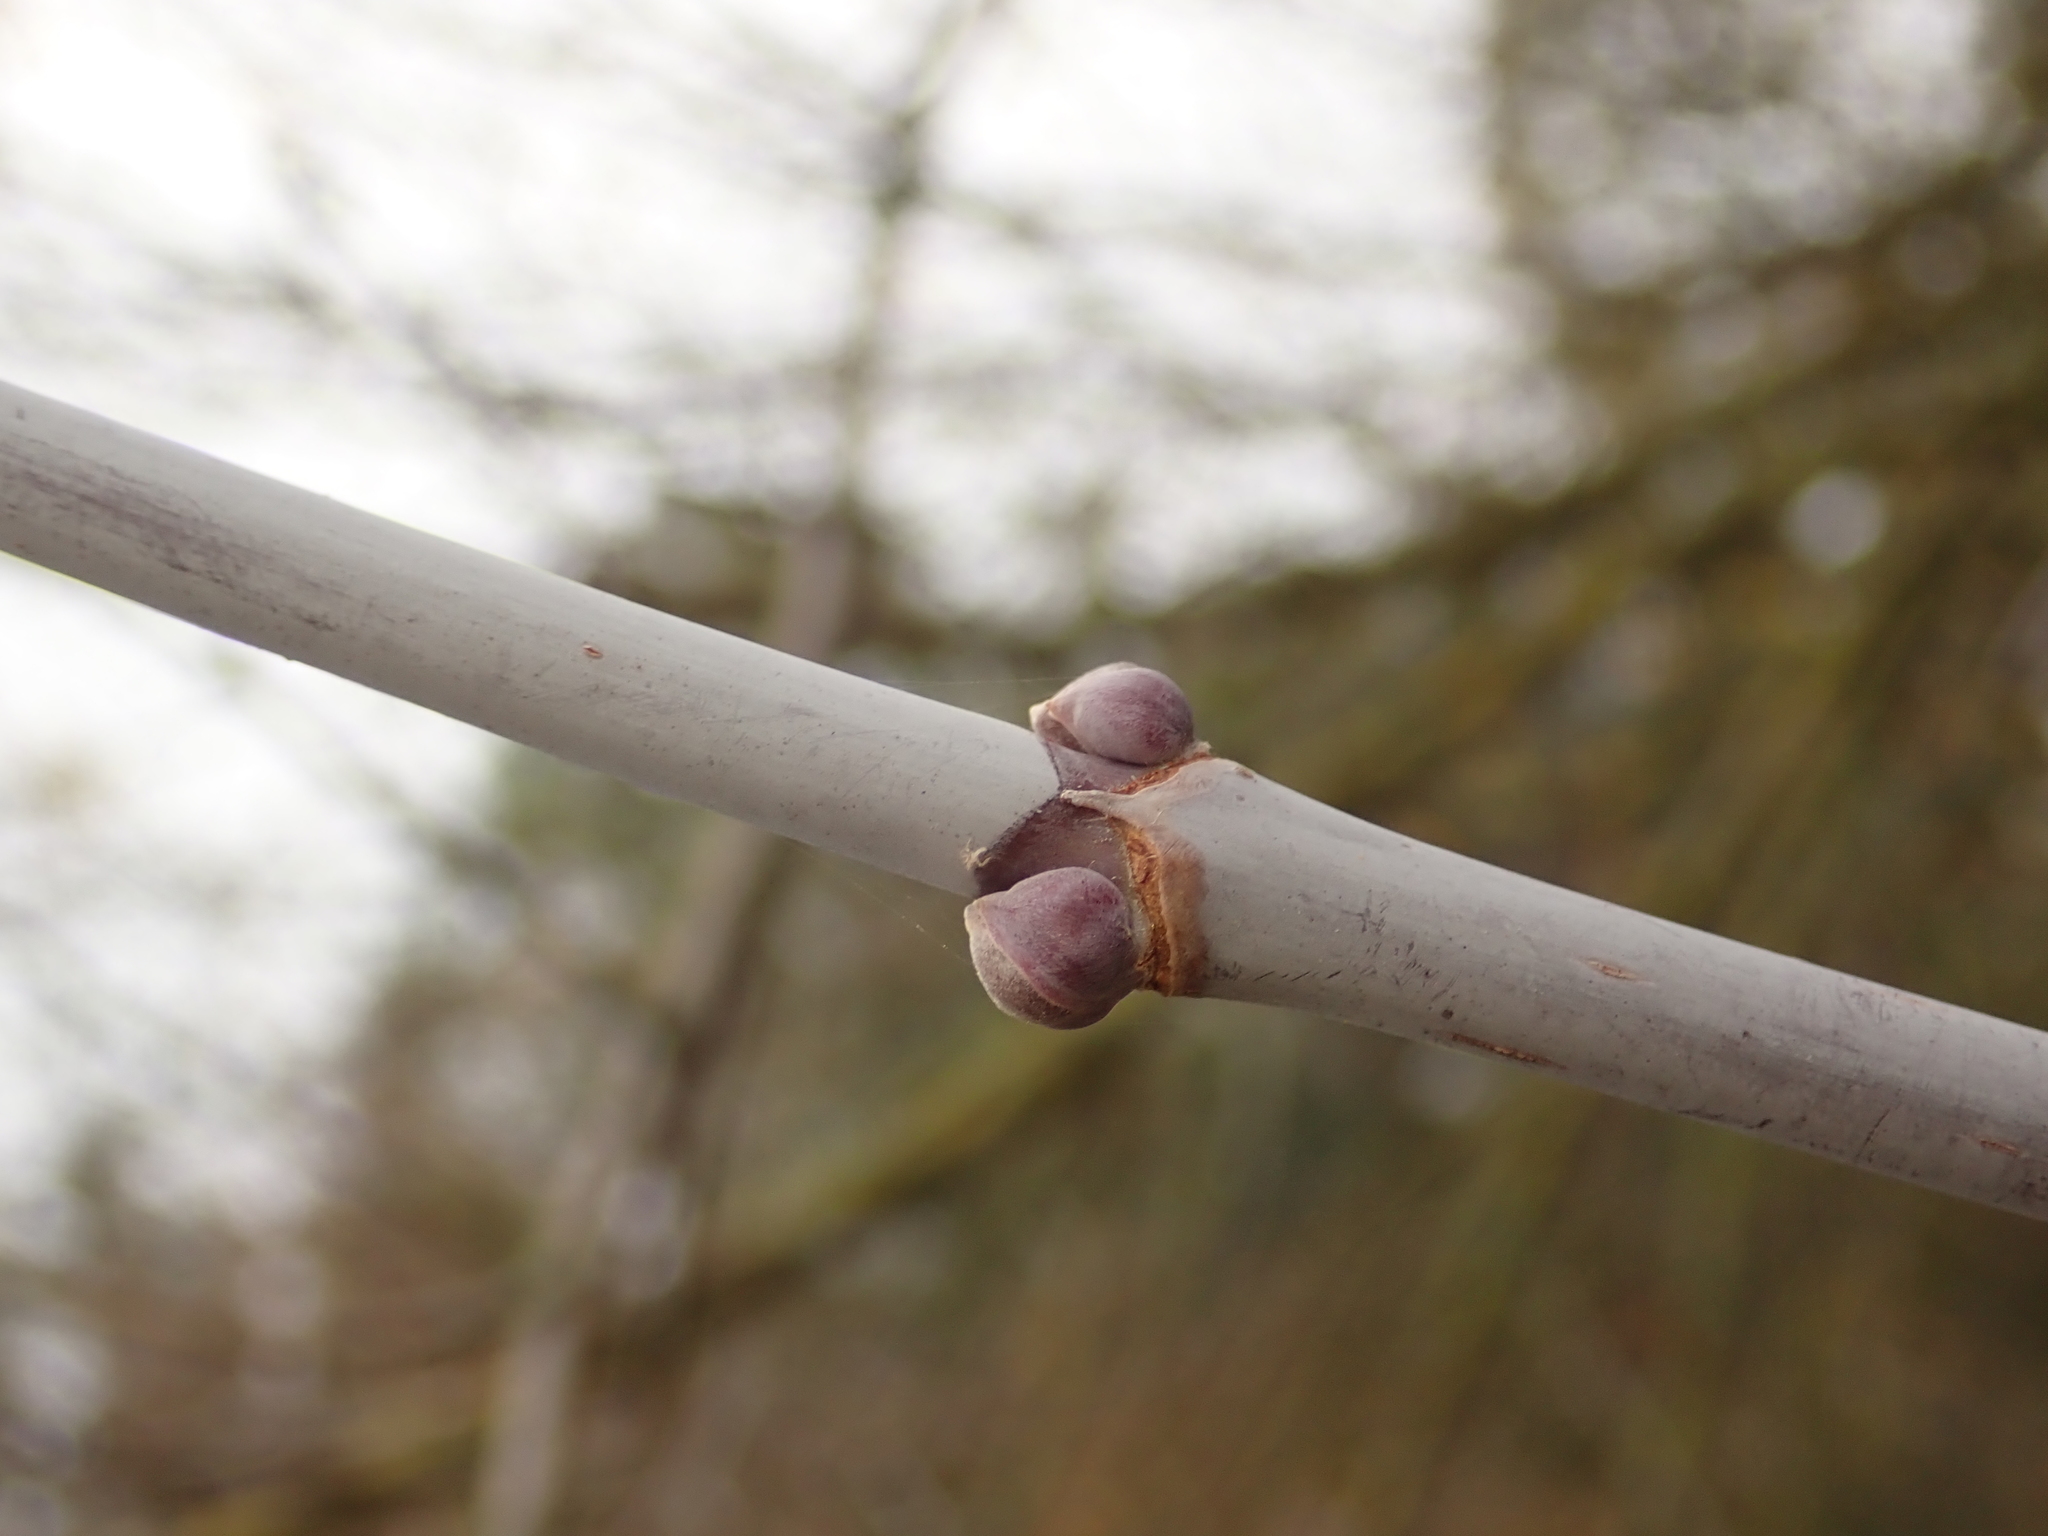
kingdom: Plantae
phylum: Tracheophyta
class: Magnoliopsida
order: Sapindales
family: Sapindaceae
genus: Acer
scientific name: Acer negundo
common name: Ashleaf maple
